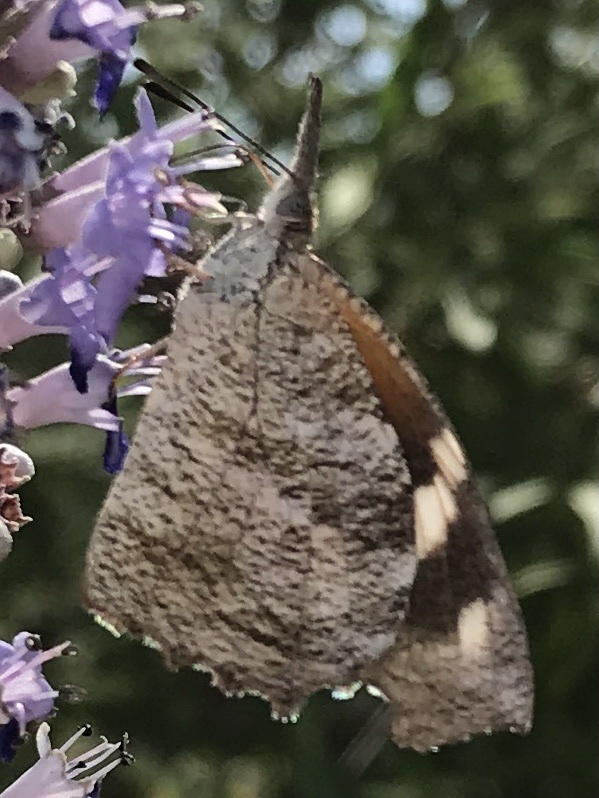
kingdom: Animalia
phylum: Arthropoda
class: Insecta
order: Lepidoptera
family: Nymphalidae
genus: Libytheana
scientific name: Libytheana carinenta
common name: American snout
